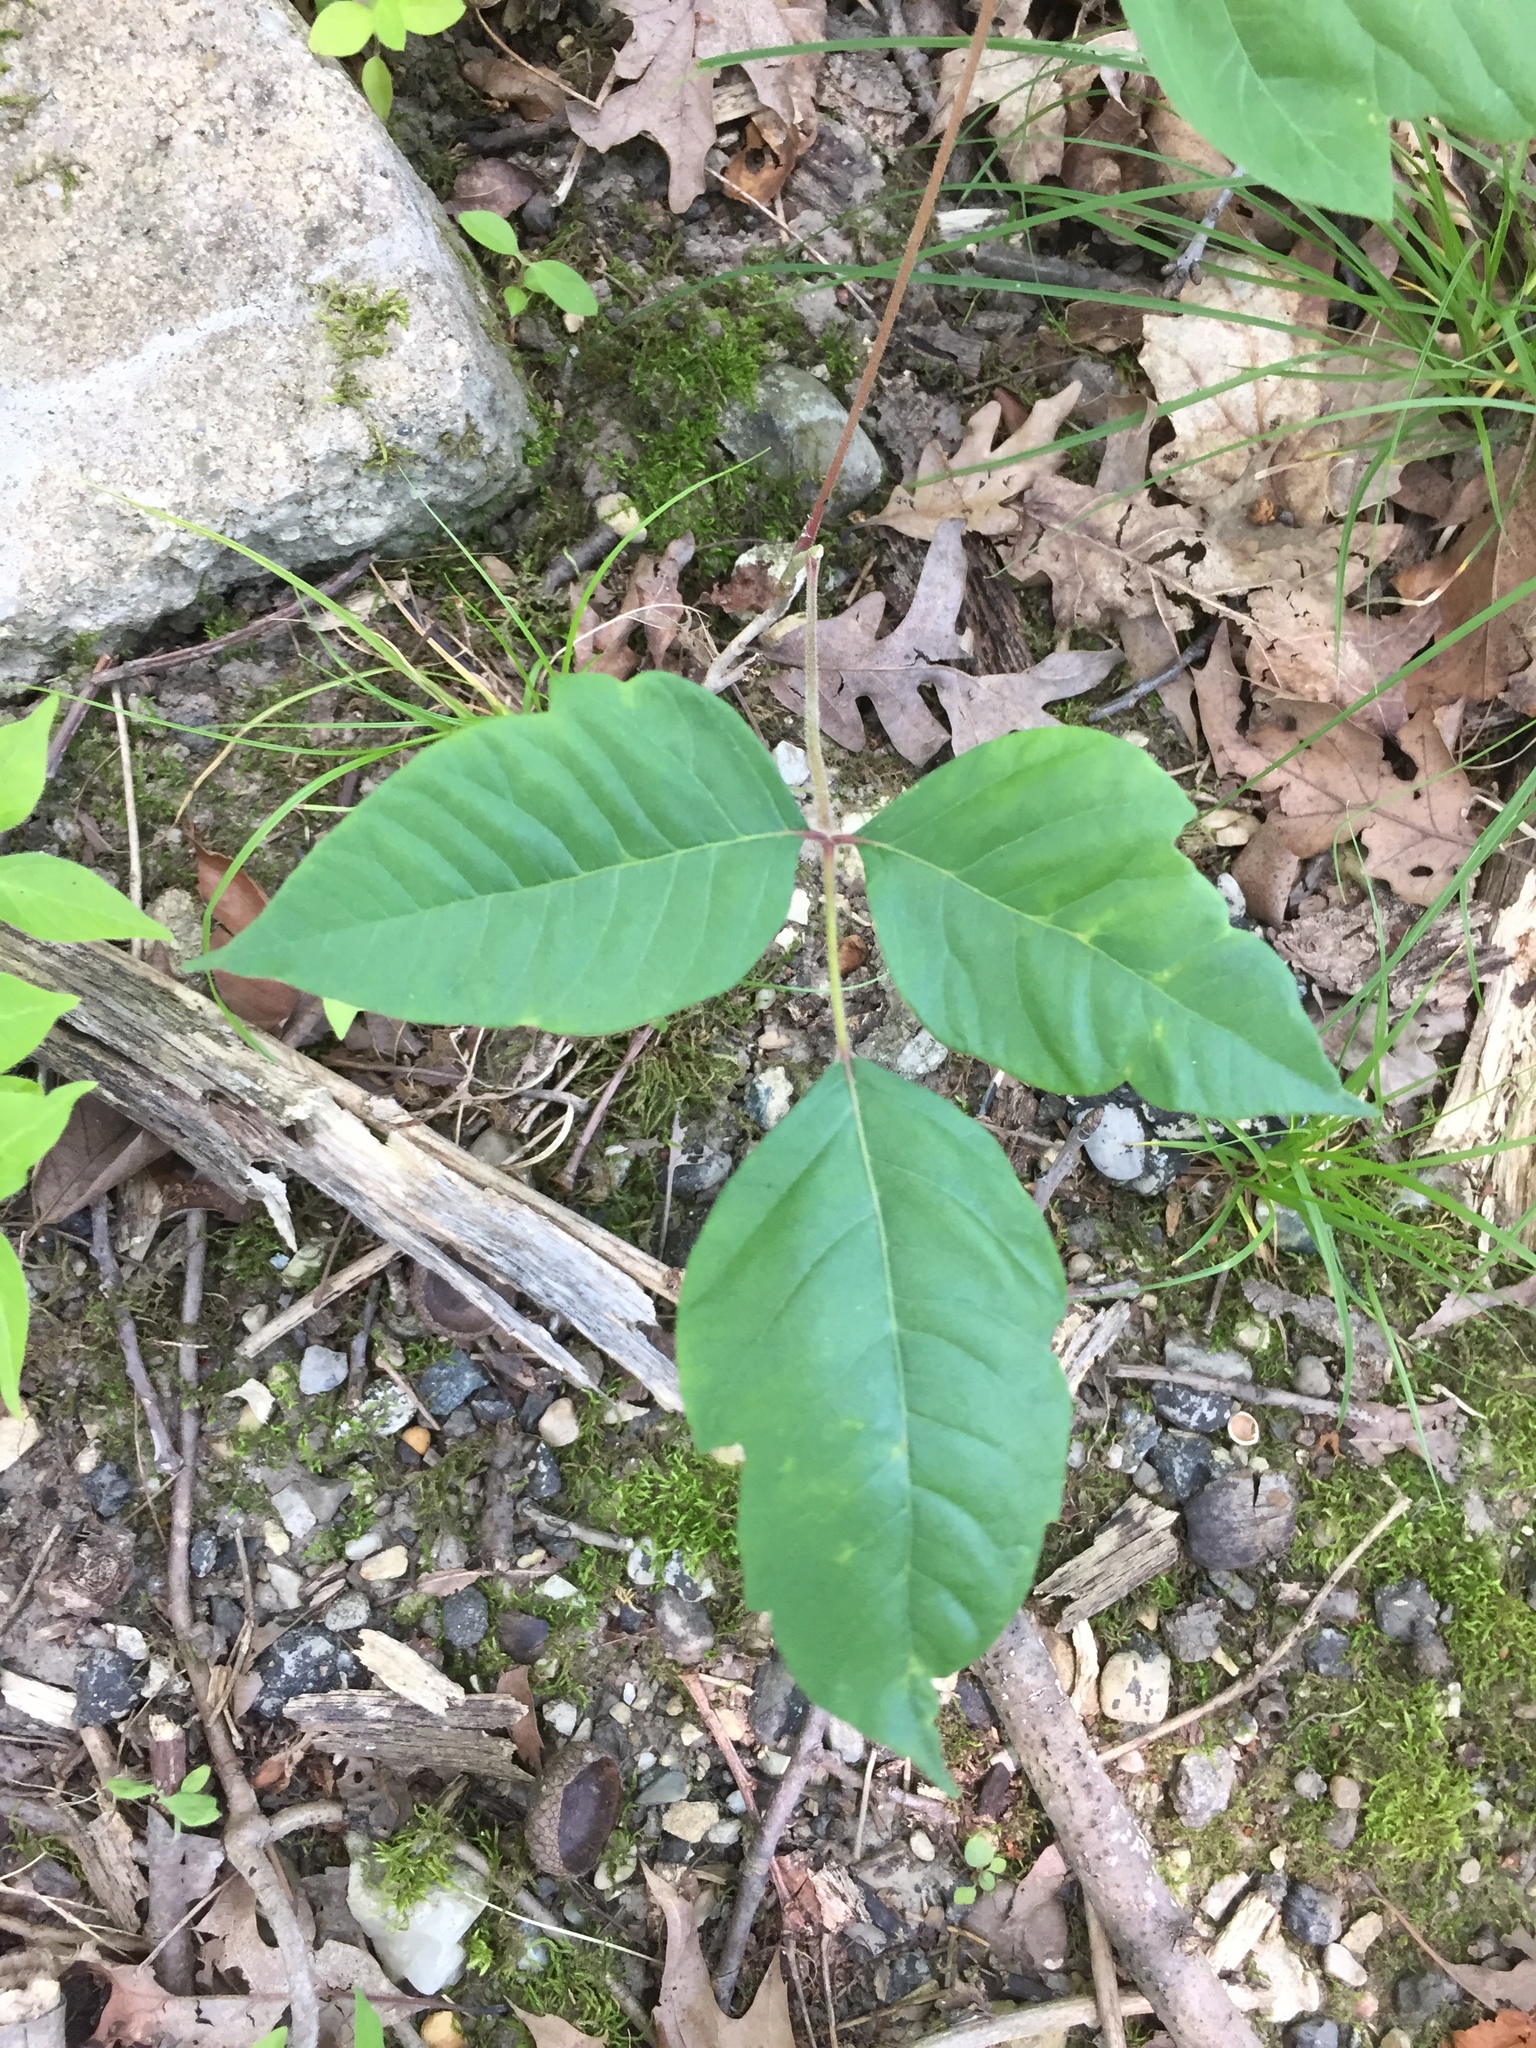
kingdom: Plantae
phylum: Tracheophyta
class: Magnoliopsida
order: Sapindales
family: Anacardiaceae
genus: Toxicodendron
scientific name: Toxicodendron radicans
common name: Poison ivy
